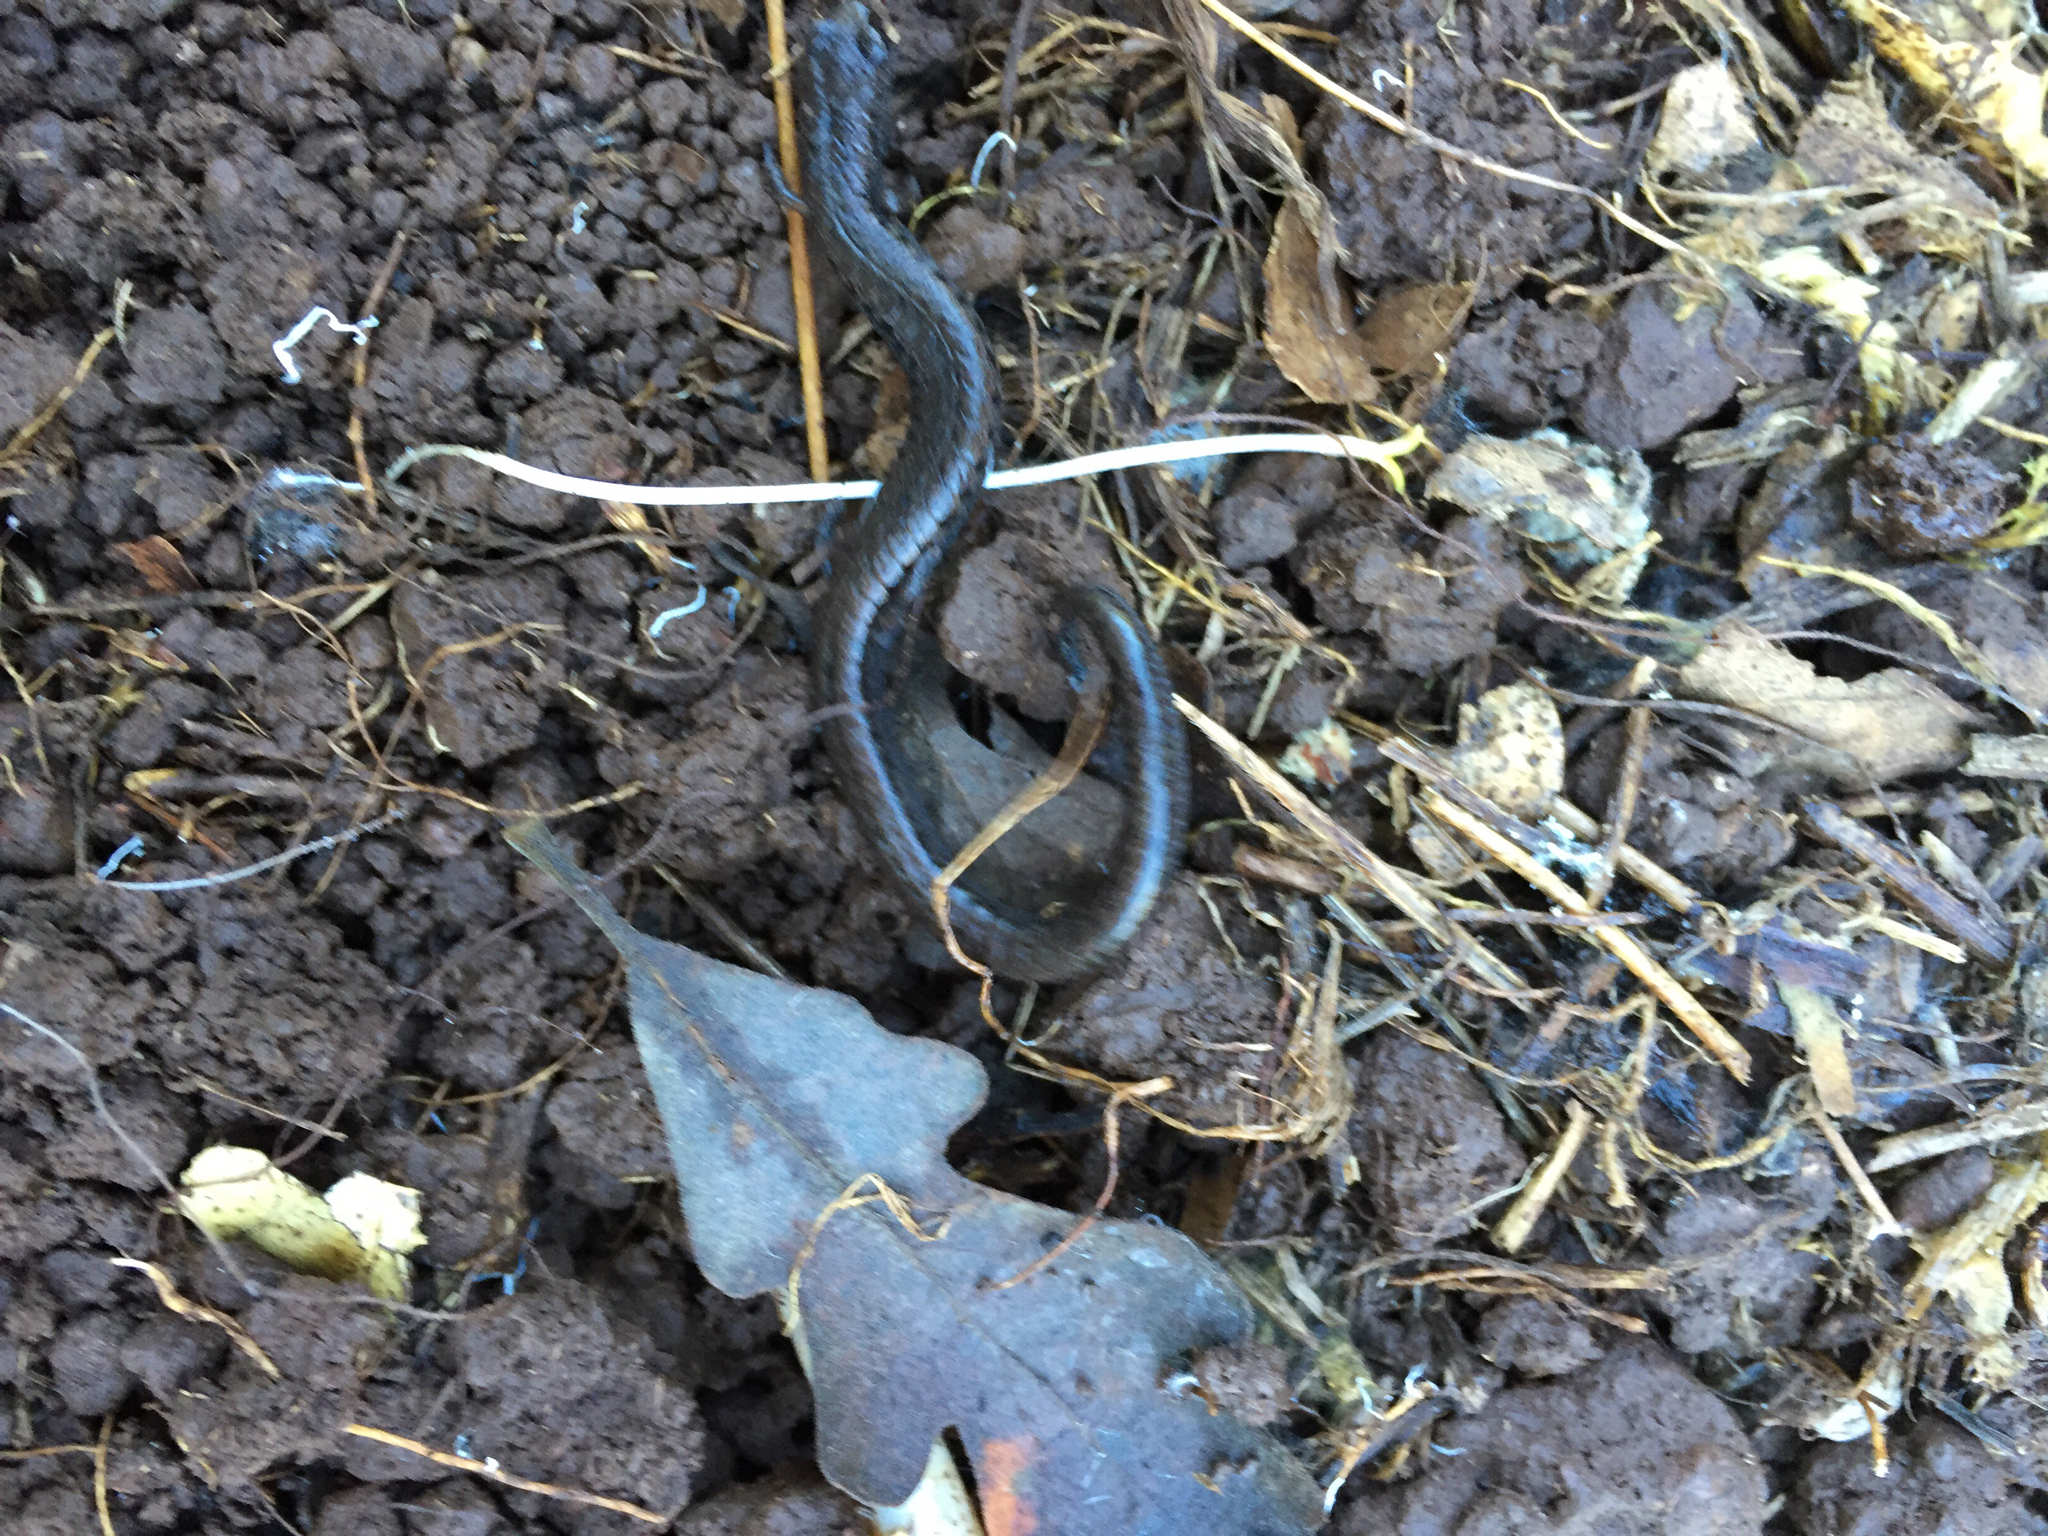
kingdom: Animalia
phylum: Chordata
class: Amphibia
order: Caudata
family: Plethodontidae
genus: Batrachoseps
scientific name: Batrachoseps attenuatus
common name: California slender salamander
